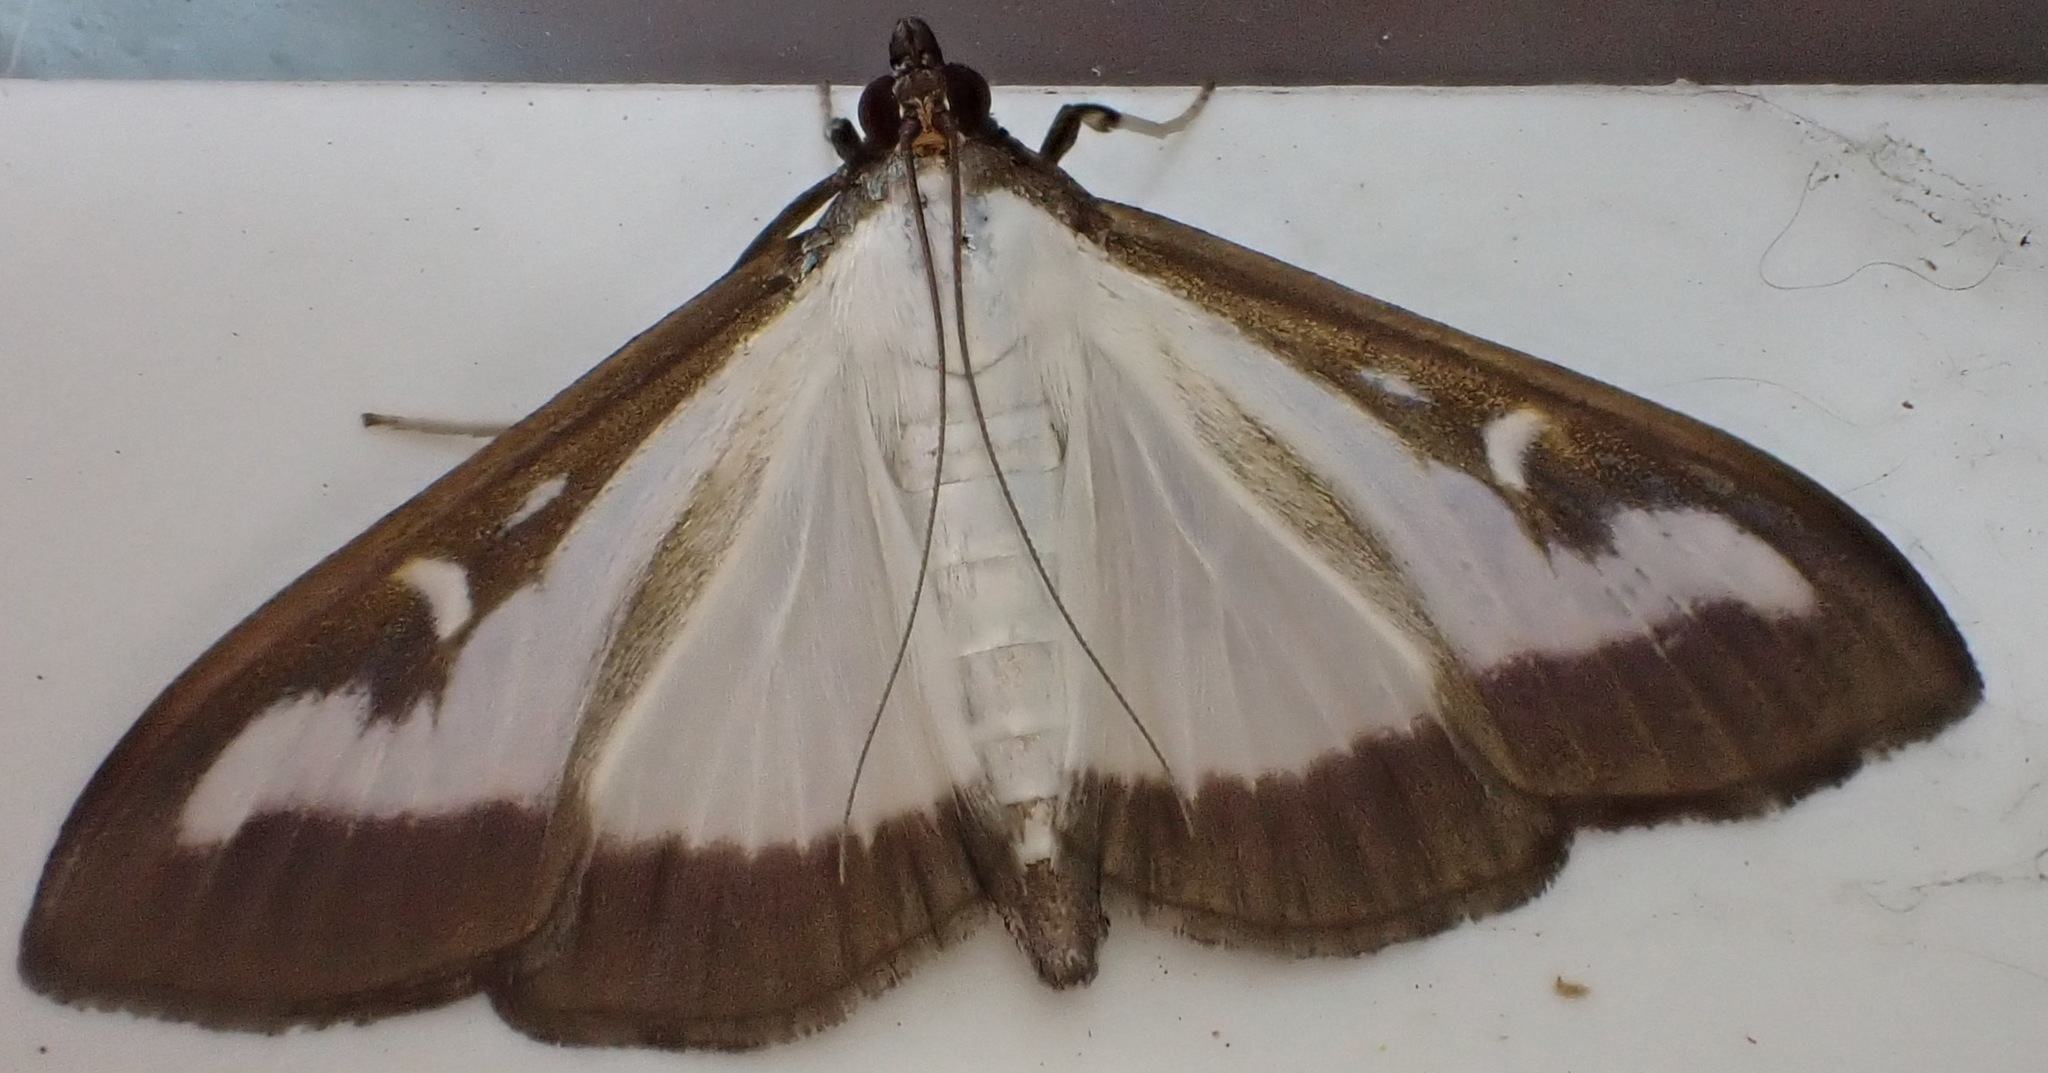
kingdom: Animalia
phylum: Arthropoda
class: Insecta
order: Lepidoptera
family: Crambidae
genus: Cydalima
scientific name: Cydalima perspectalis
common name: Box tree moth
